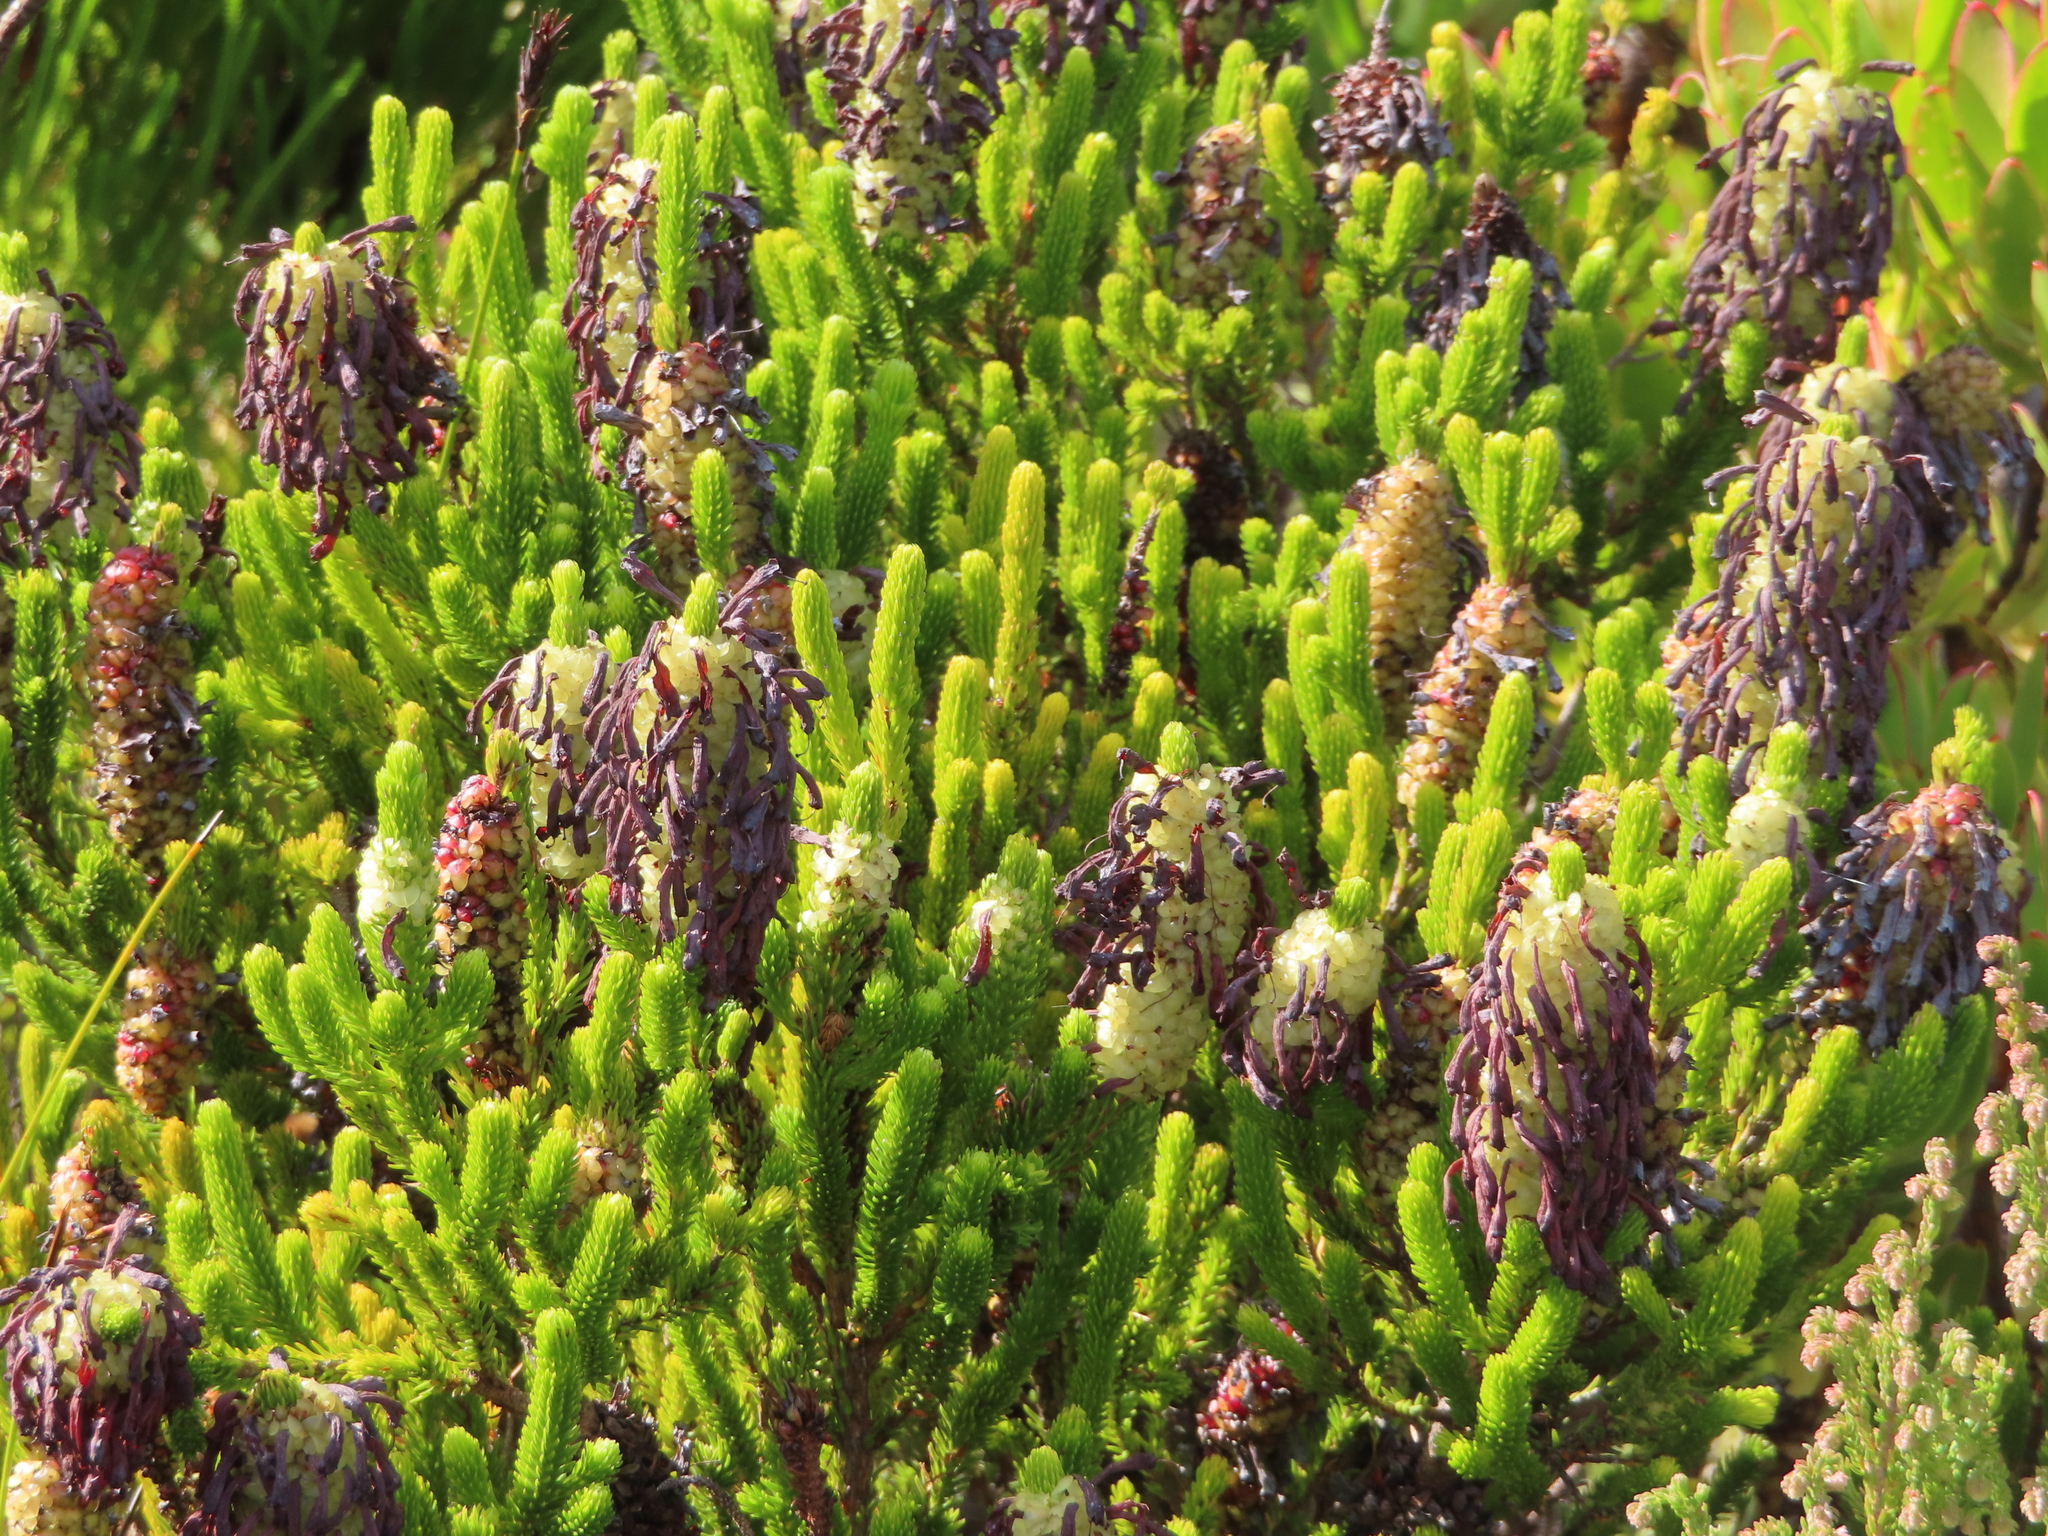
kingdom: Plantae
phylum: Tracheophyta
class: Magnoliopsida
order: Ericales
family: Ericaceae
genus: Erica
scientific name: Erica sessiliflora
